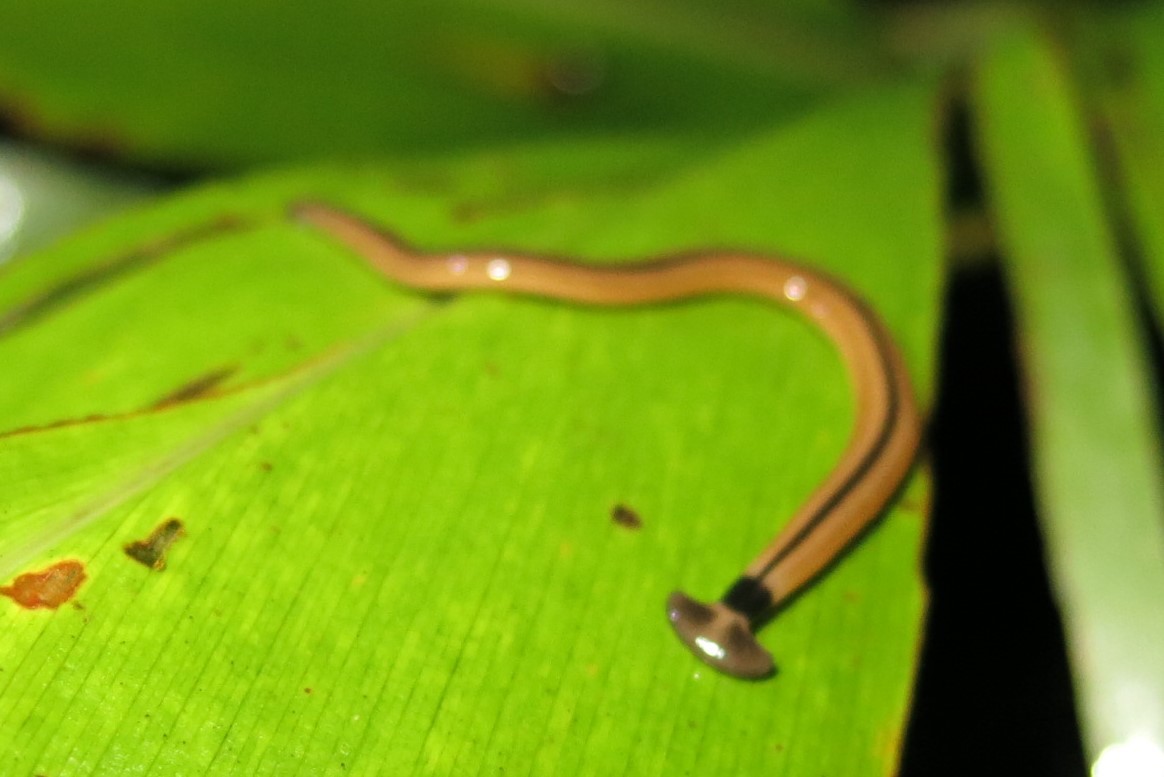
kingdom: Animalia
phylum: Platyhelminthes
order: Tricladida
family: Geoplanidae
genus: Bipalium
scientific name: Bipalium vagum
